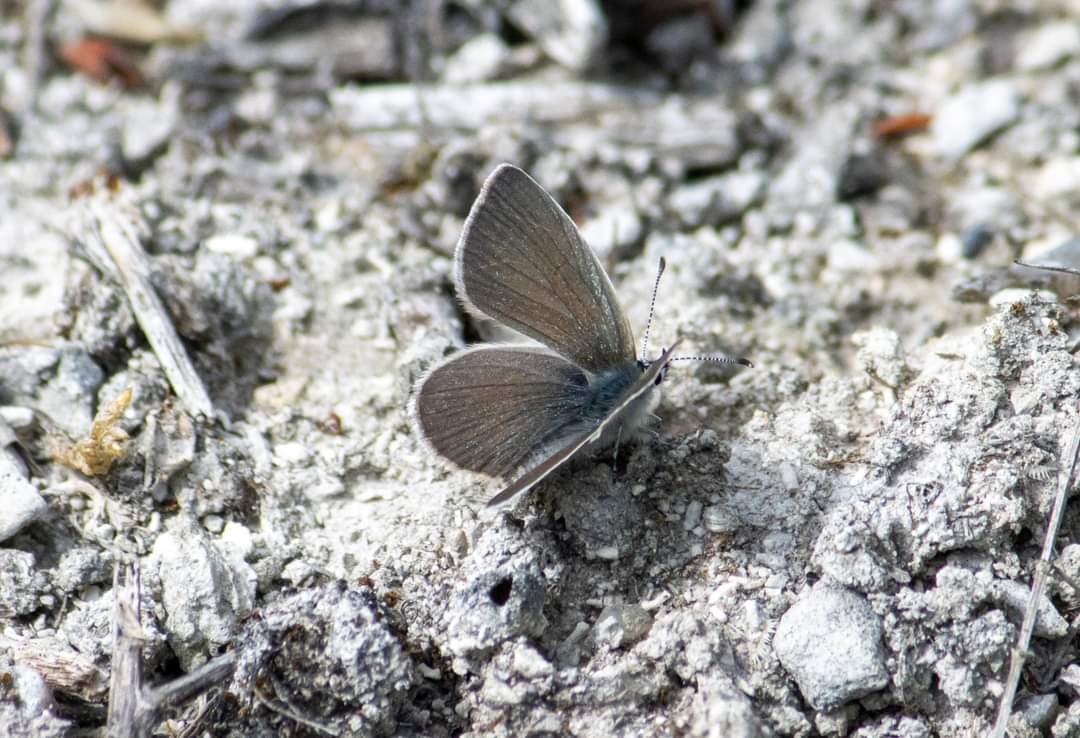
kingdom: Animalia
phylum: Arthropoda
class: Insecta
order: Lepidoptera
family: Lycaenidae
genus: Cupido
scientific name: Cupido minimus
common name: Small blue
